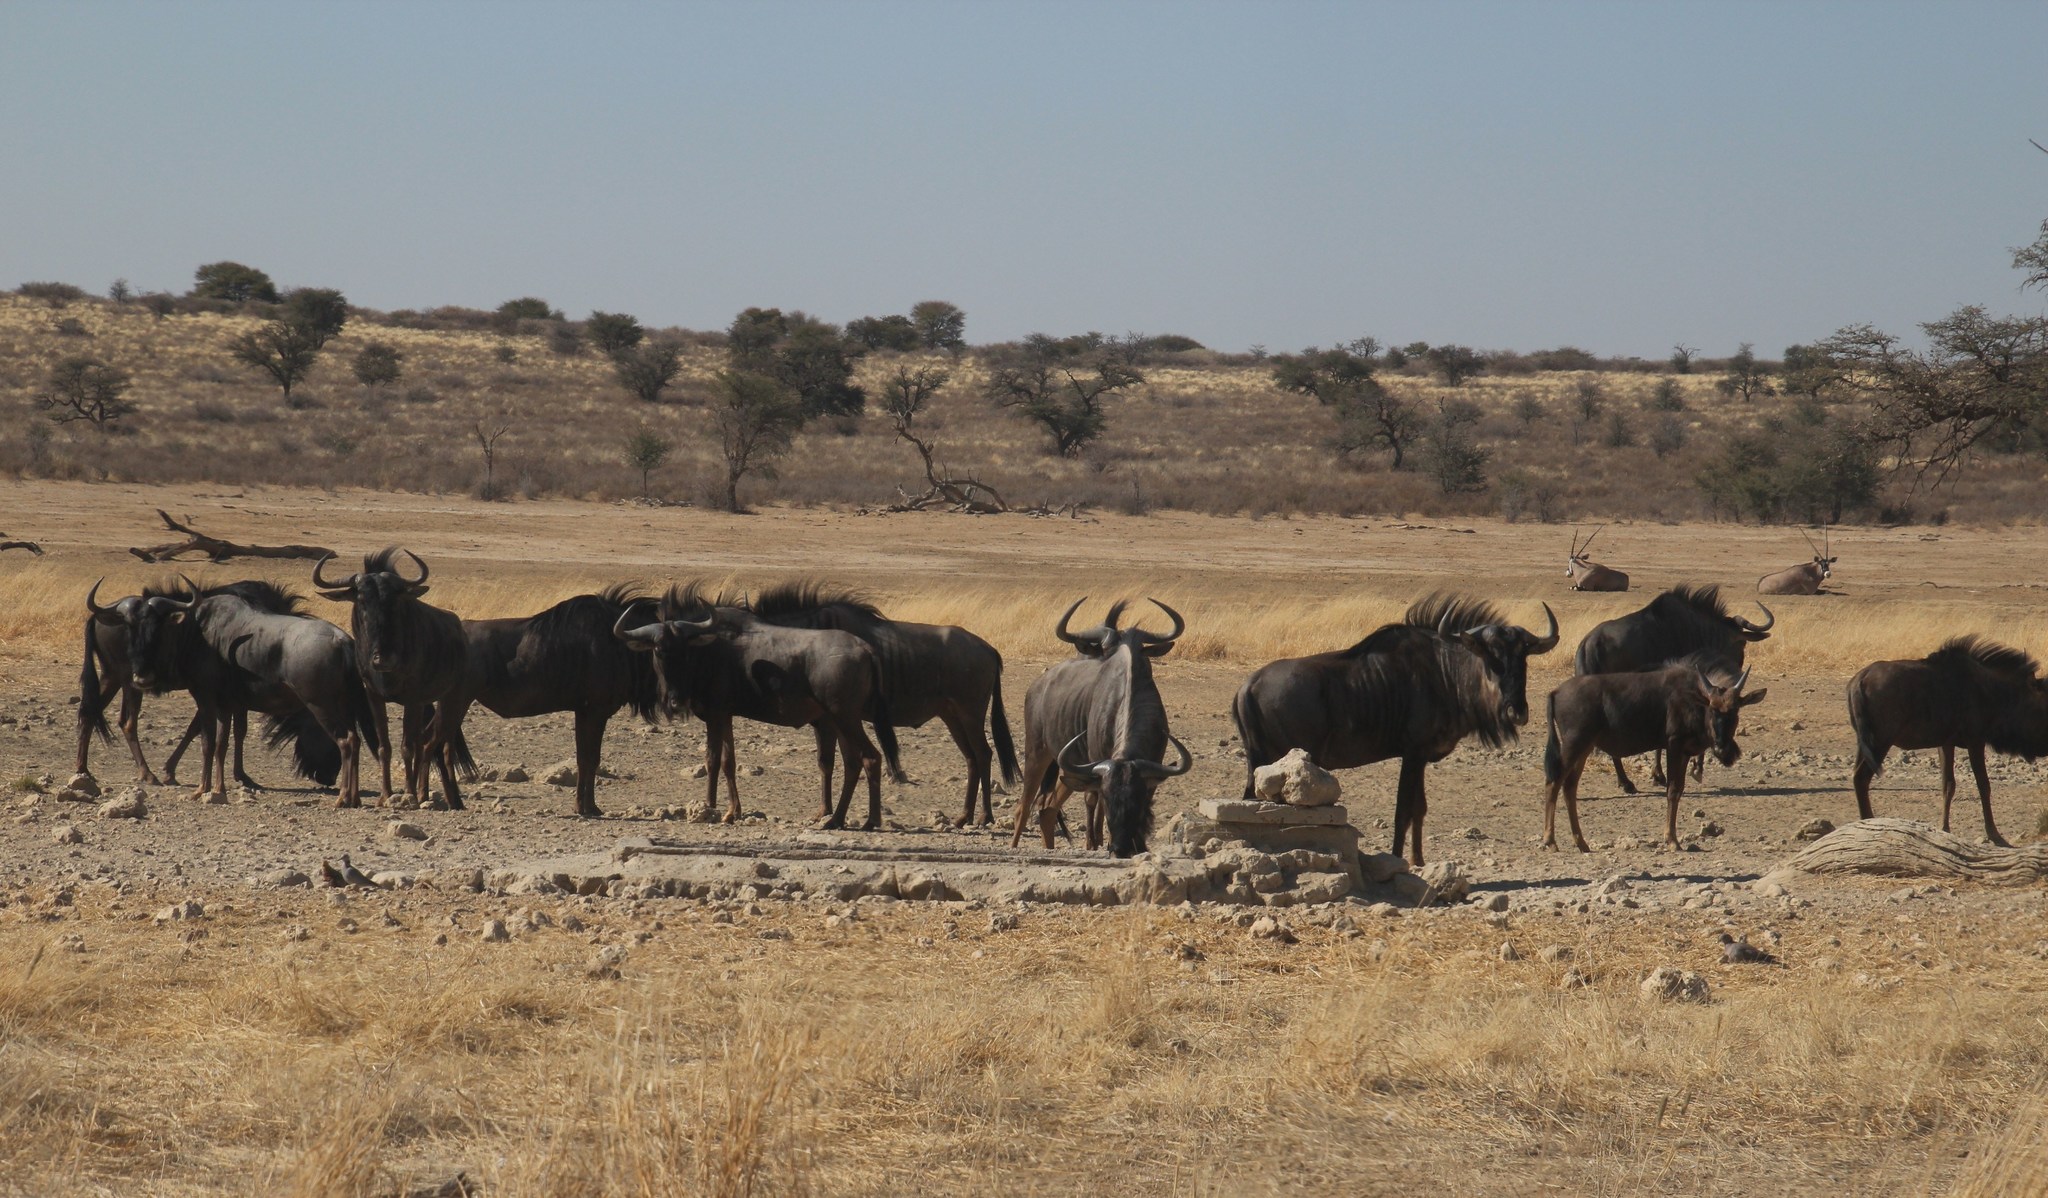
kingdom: Animalia
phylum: Chordata
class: Mammalia
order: Artiodactyla
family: Bovidae
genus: Connochaetes
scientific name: Connochaetes taurinus
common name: Blue wildebeest
